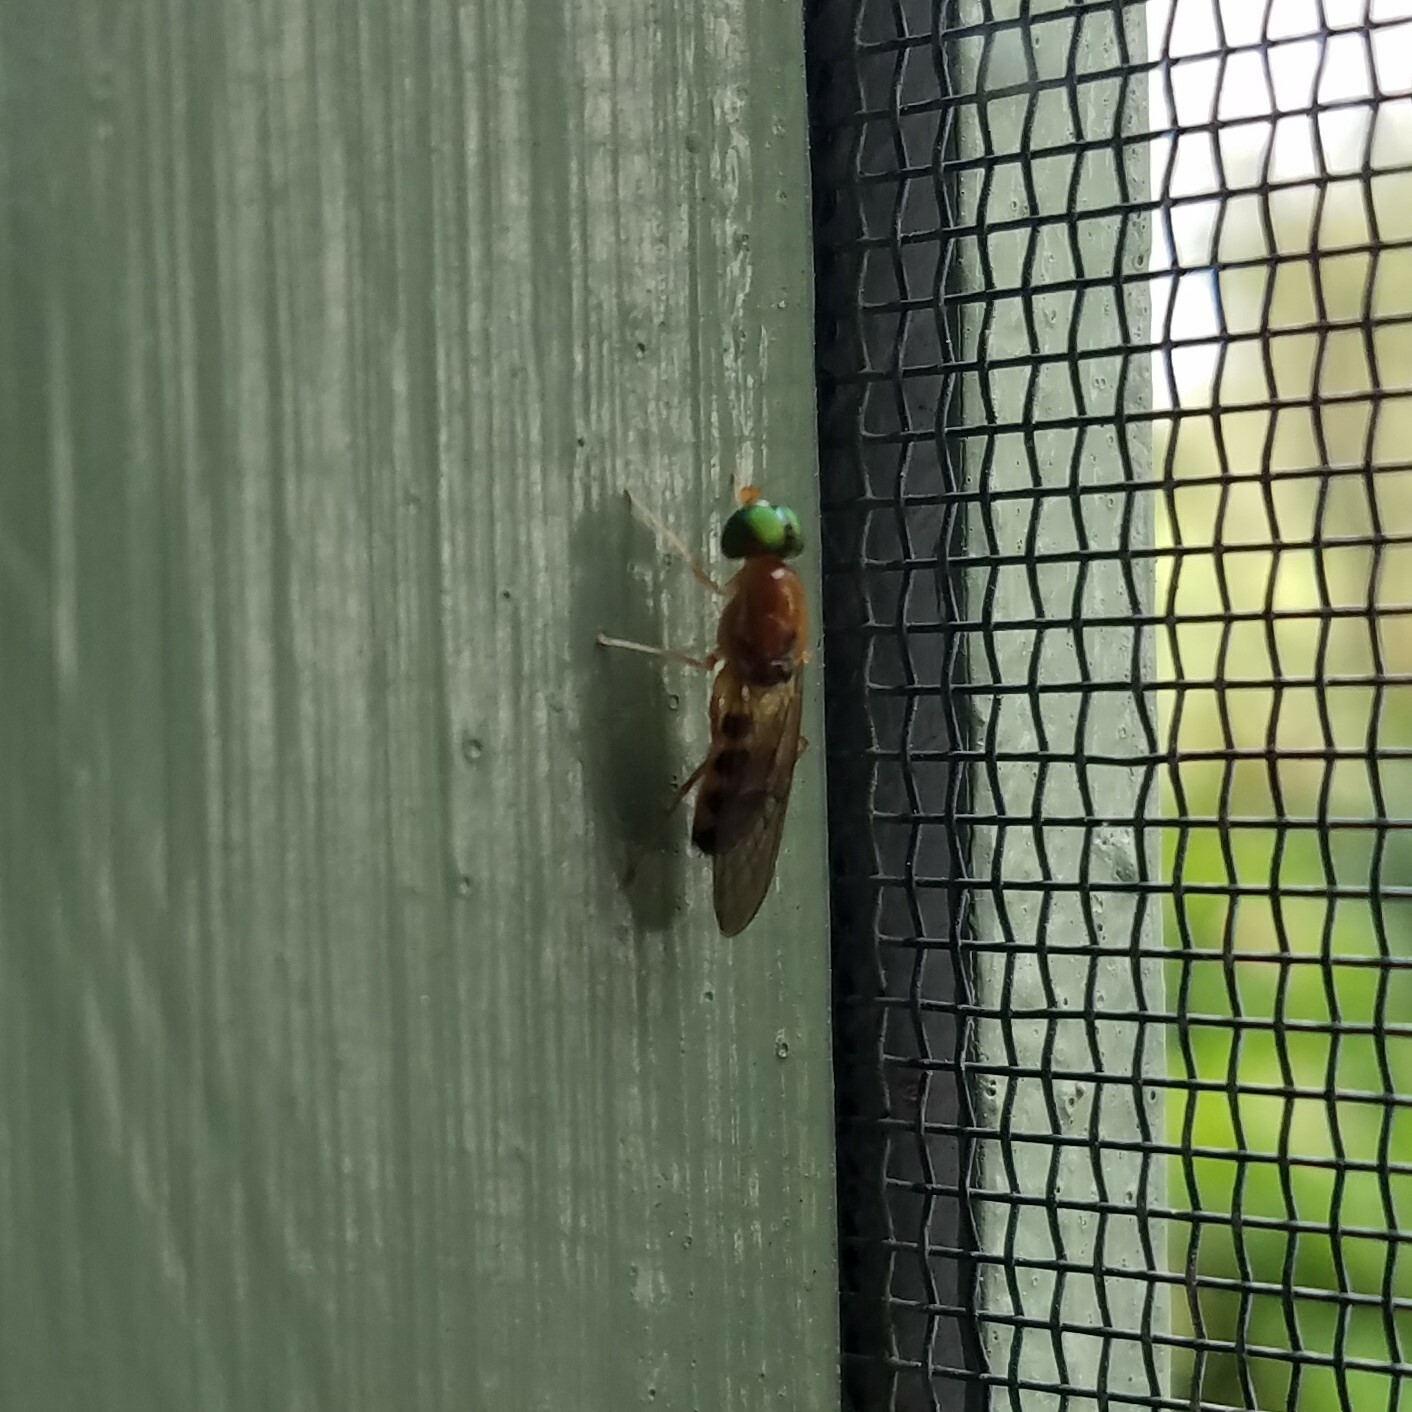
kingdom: Animalia
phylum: Arthropoda
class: Insecta
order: Diptera
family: Stratiomyidae
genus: Sargus
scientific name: Sargus elegans
